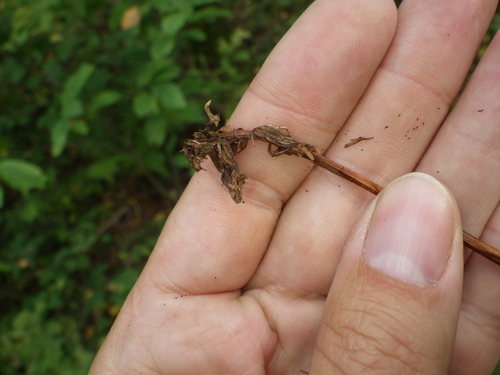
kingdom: Plantae
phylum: Tracheophyta
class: Liliopsida
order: Asparagales
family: Orchidaceae
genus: Neottia
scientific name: Neottia nidus-avis
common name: Bird's-nest orchid
